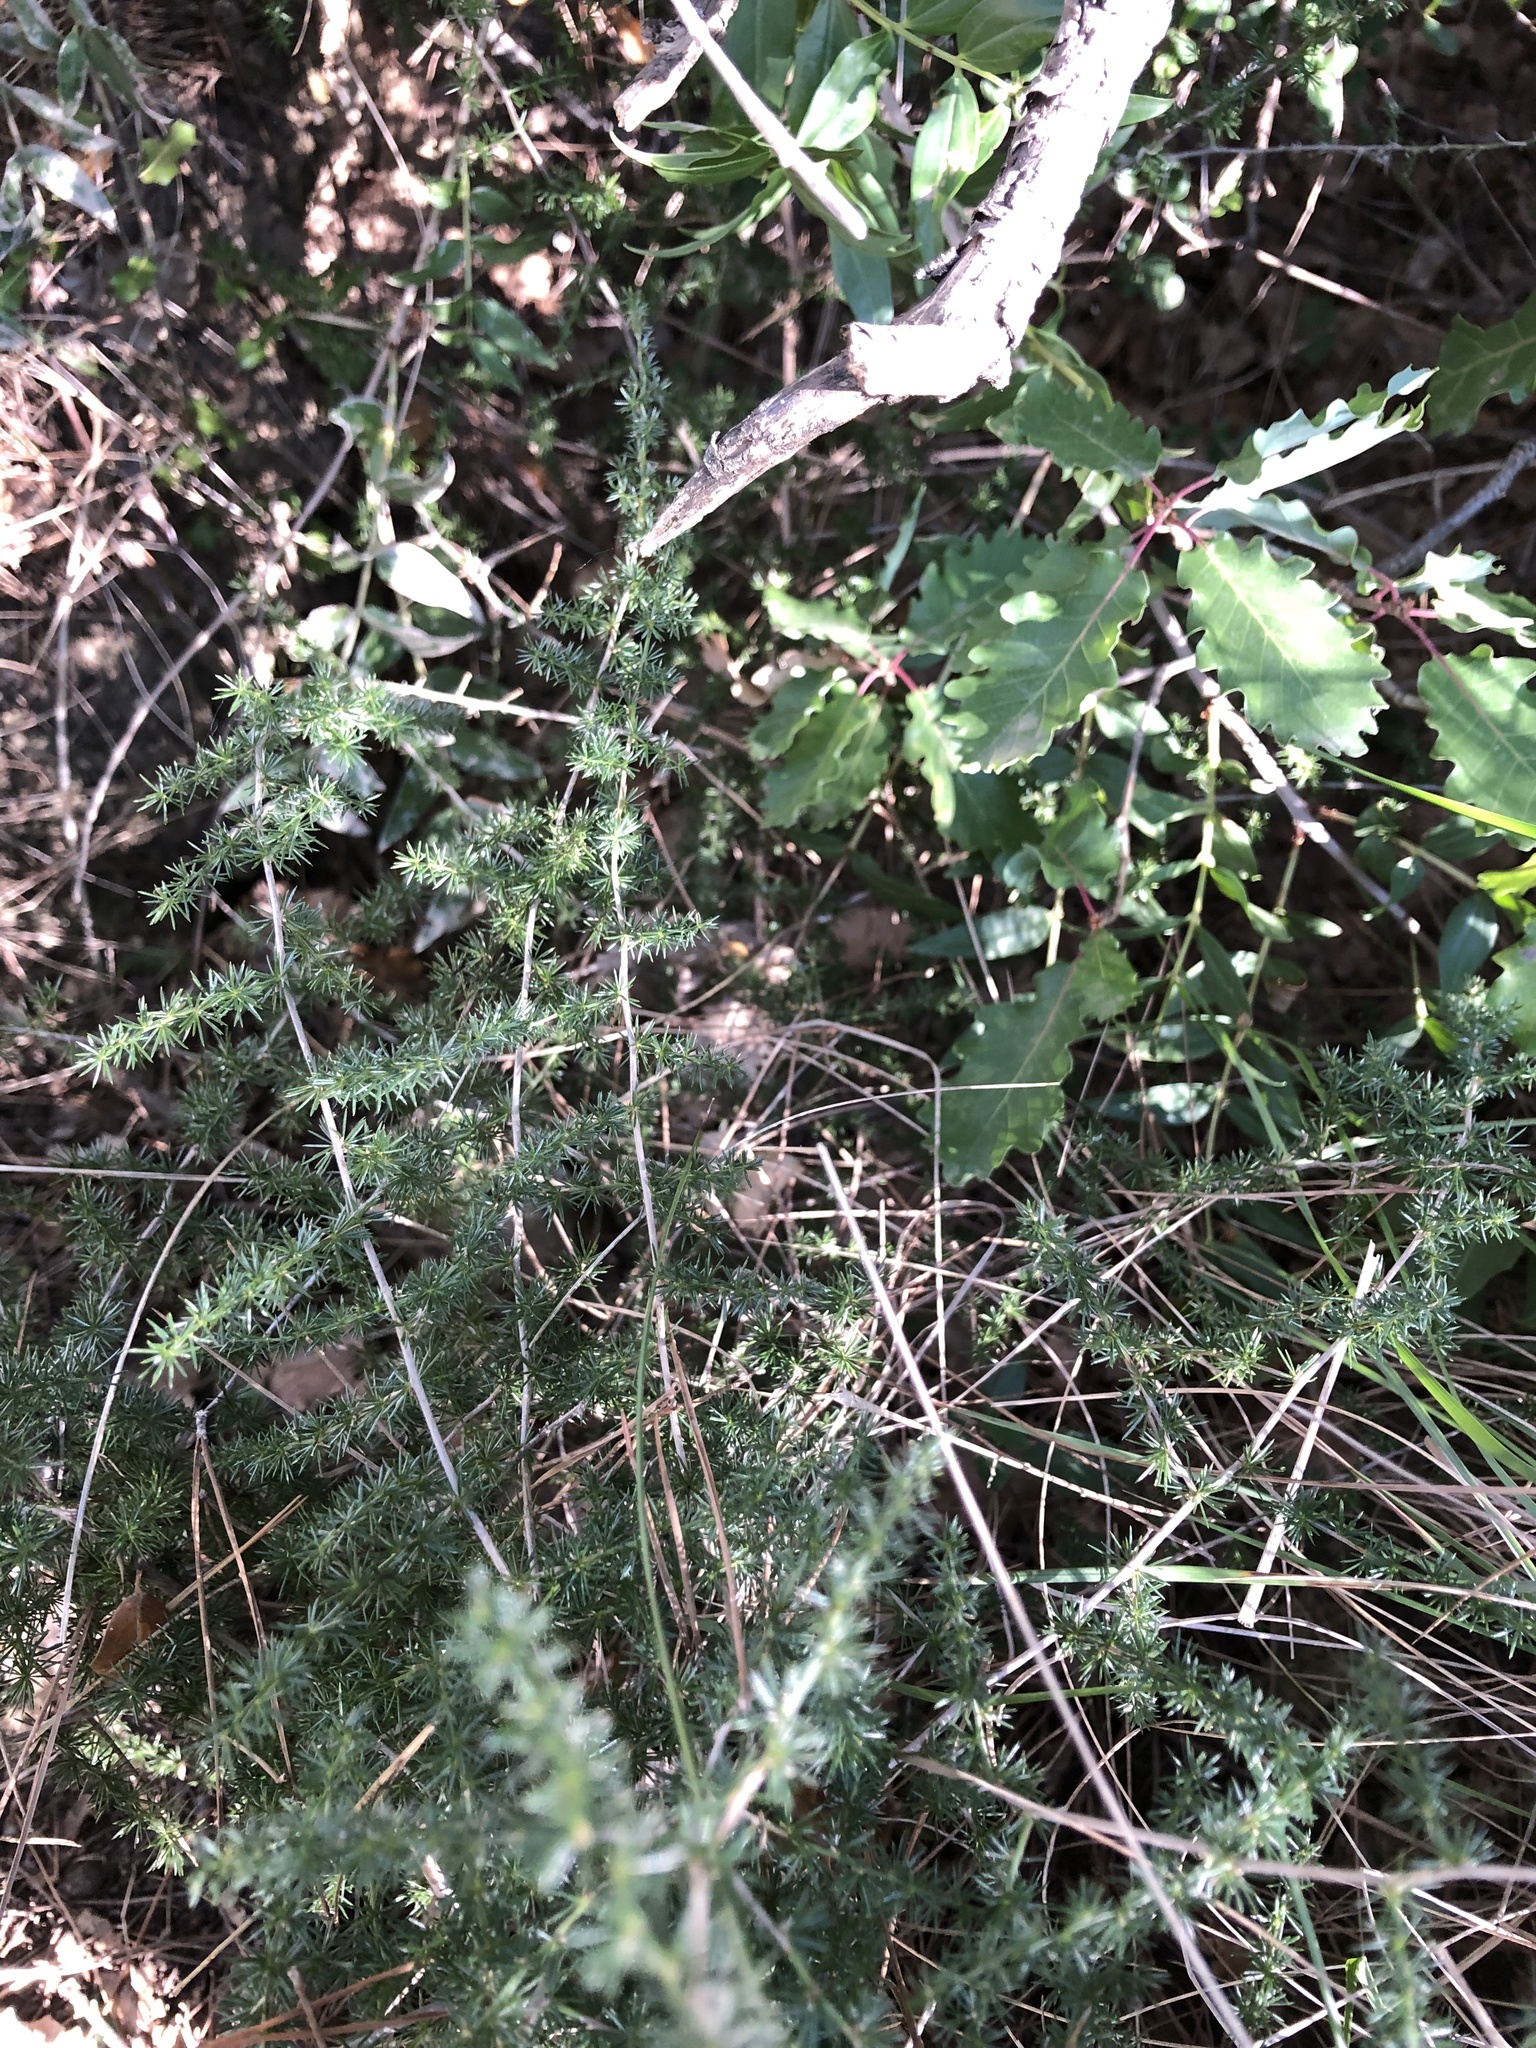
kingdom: Plantae
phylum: Tracheophyta
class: Liliopsida
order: Asparagales
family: Asparagaceae
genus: Asparagus
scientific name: Asparagus acutifolius
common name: Wild asparagus
